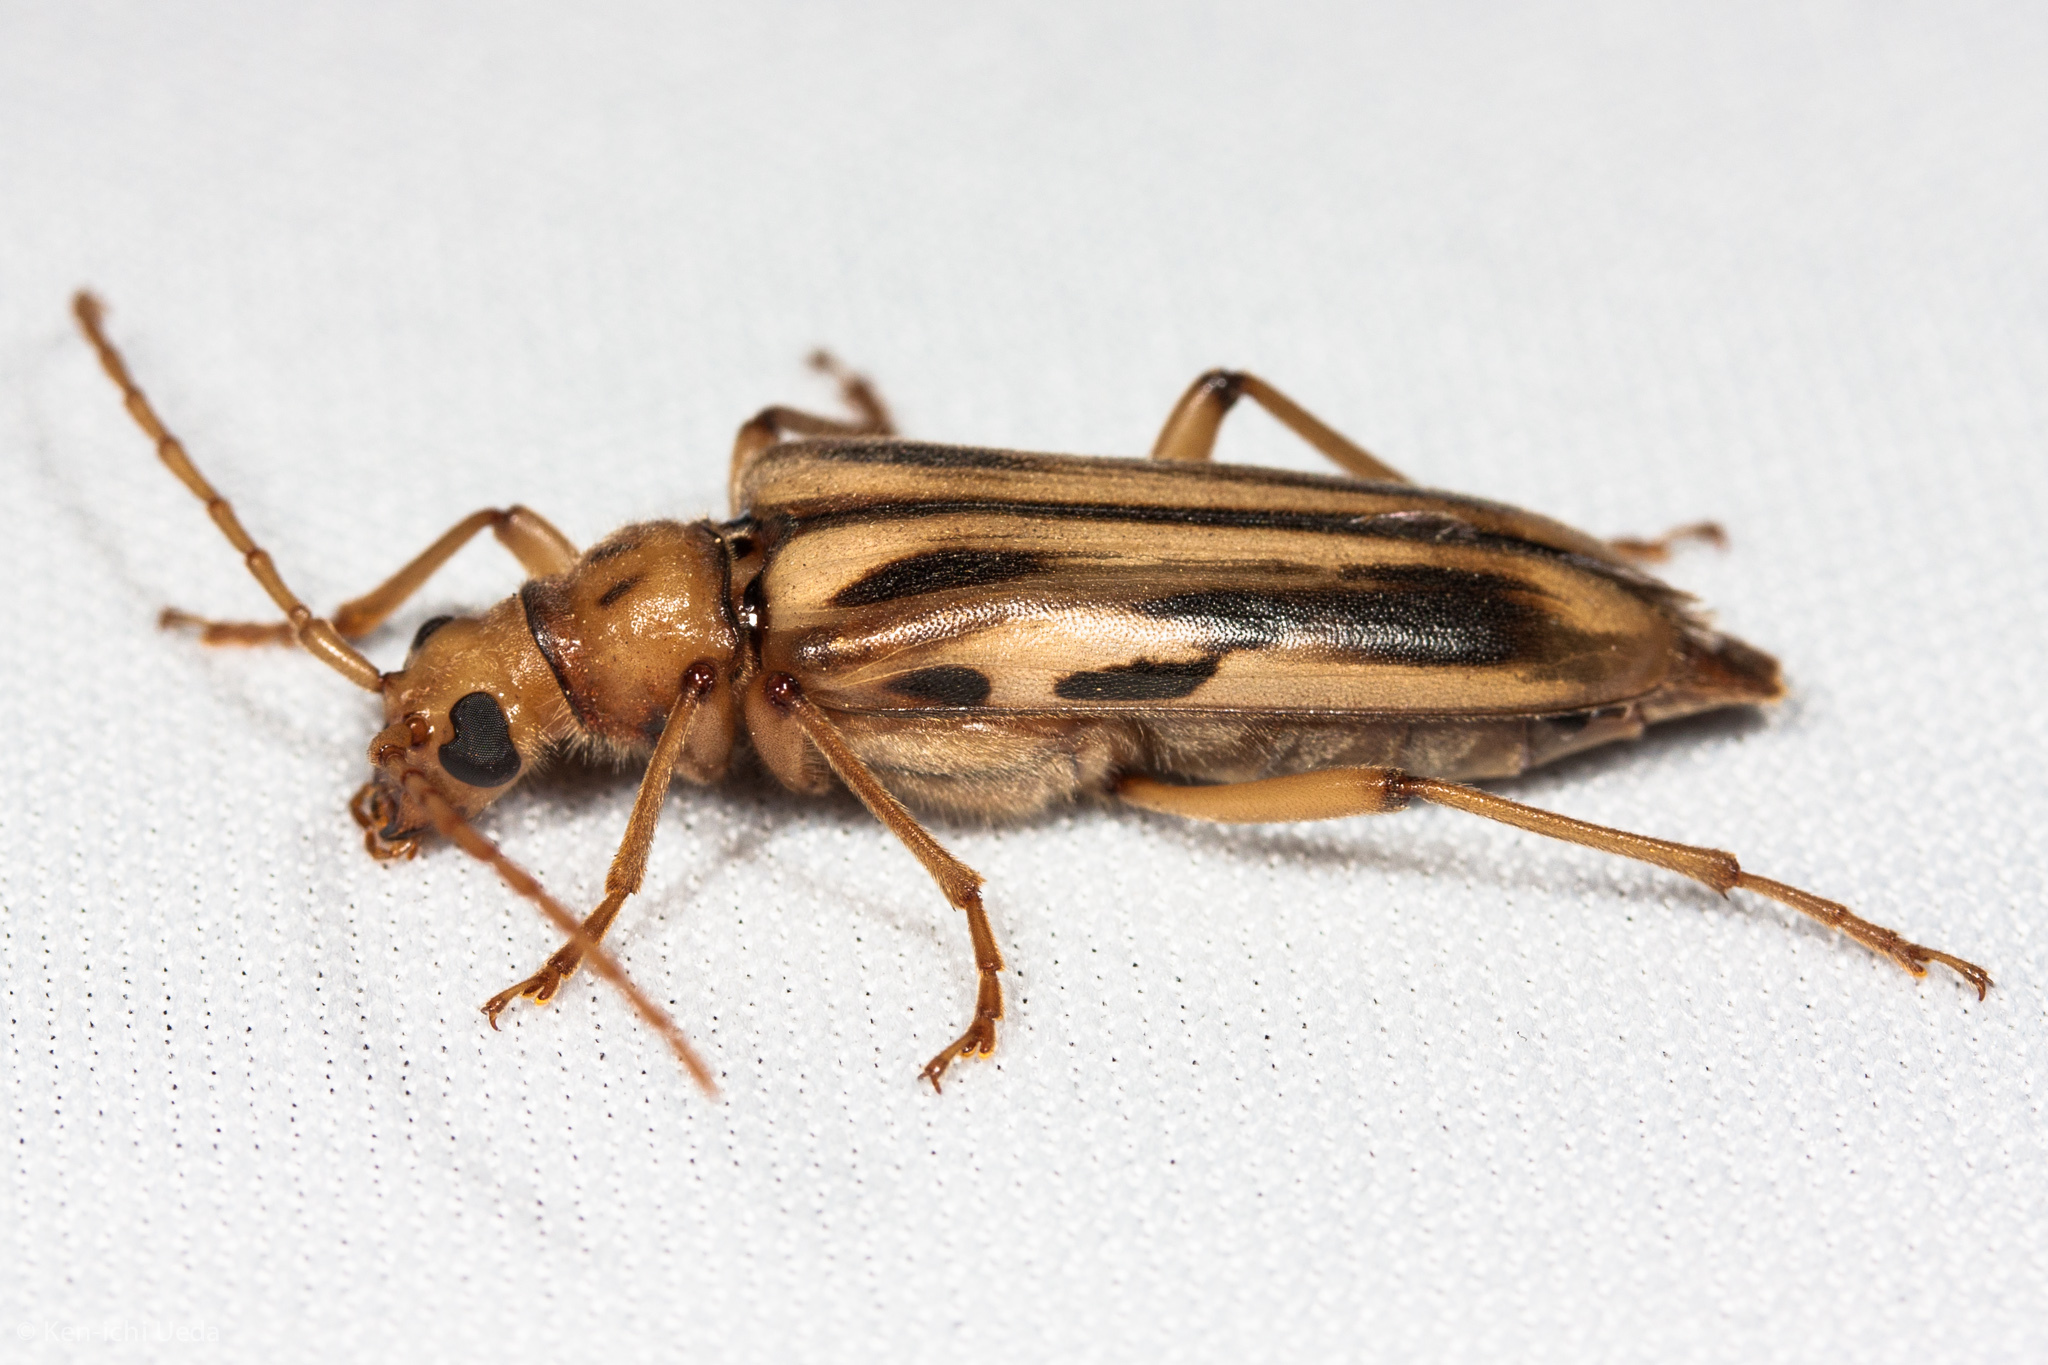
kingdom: Animalia
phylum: Arthropoda
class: Insecta
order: Coleoptera
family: Cerambycidae
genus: Ortholeptura
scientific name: Ortholeptura valida
